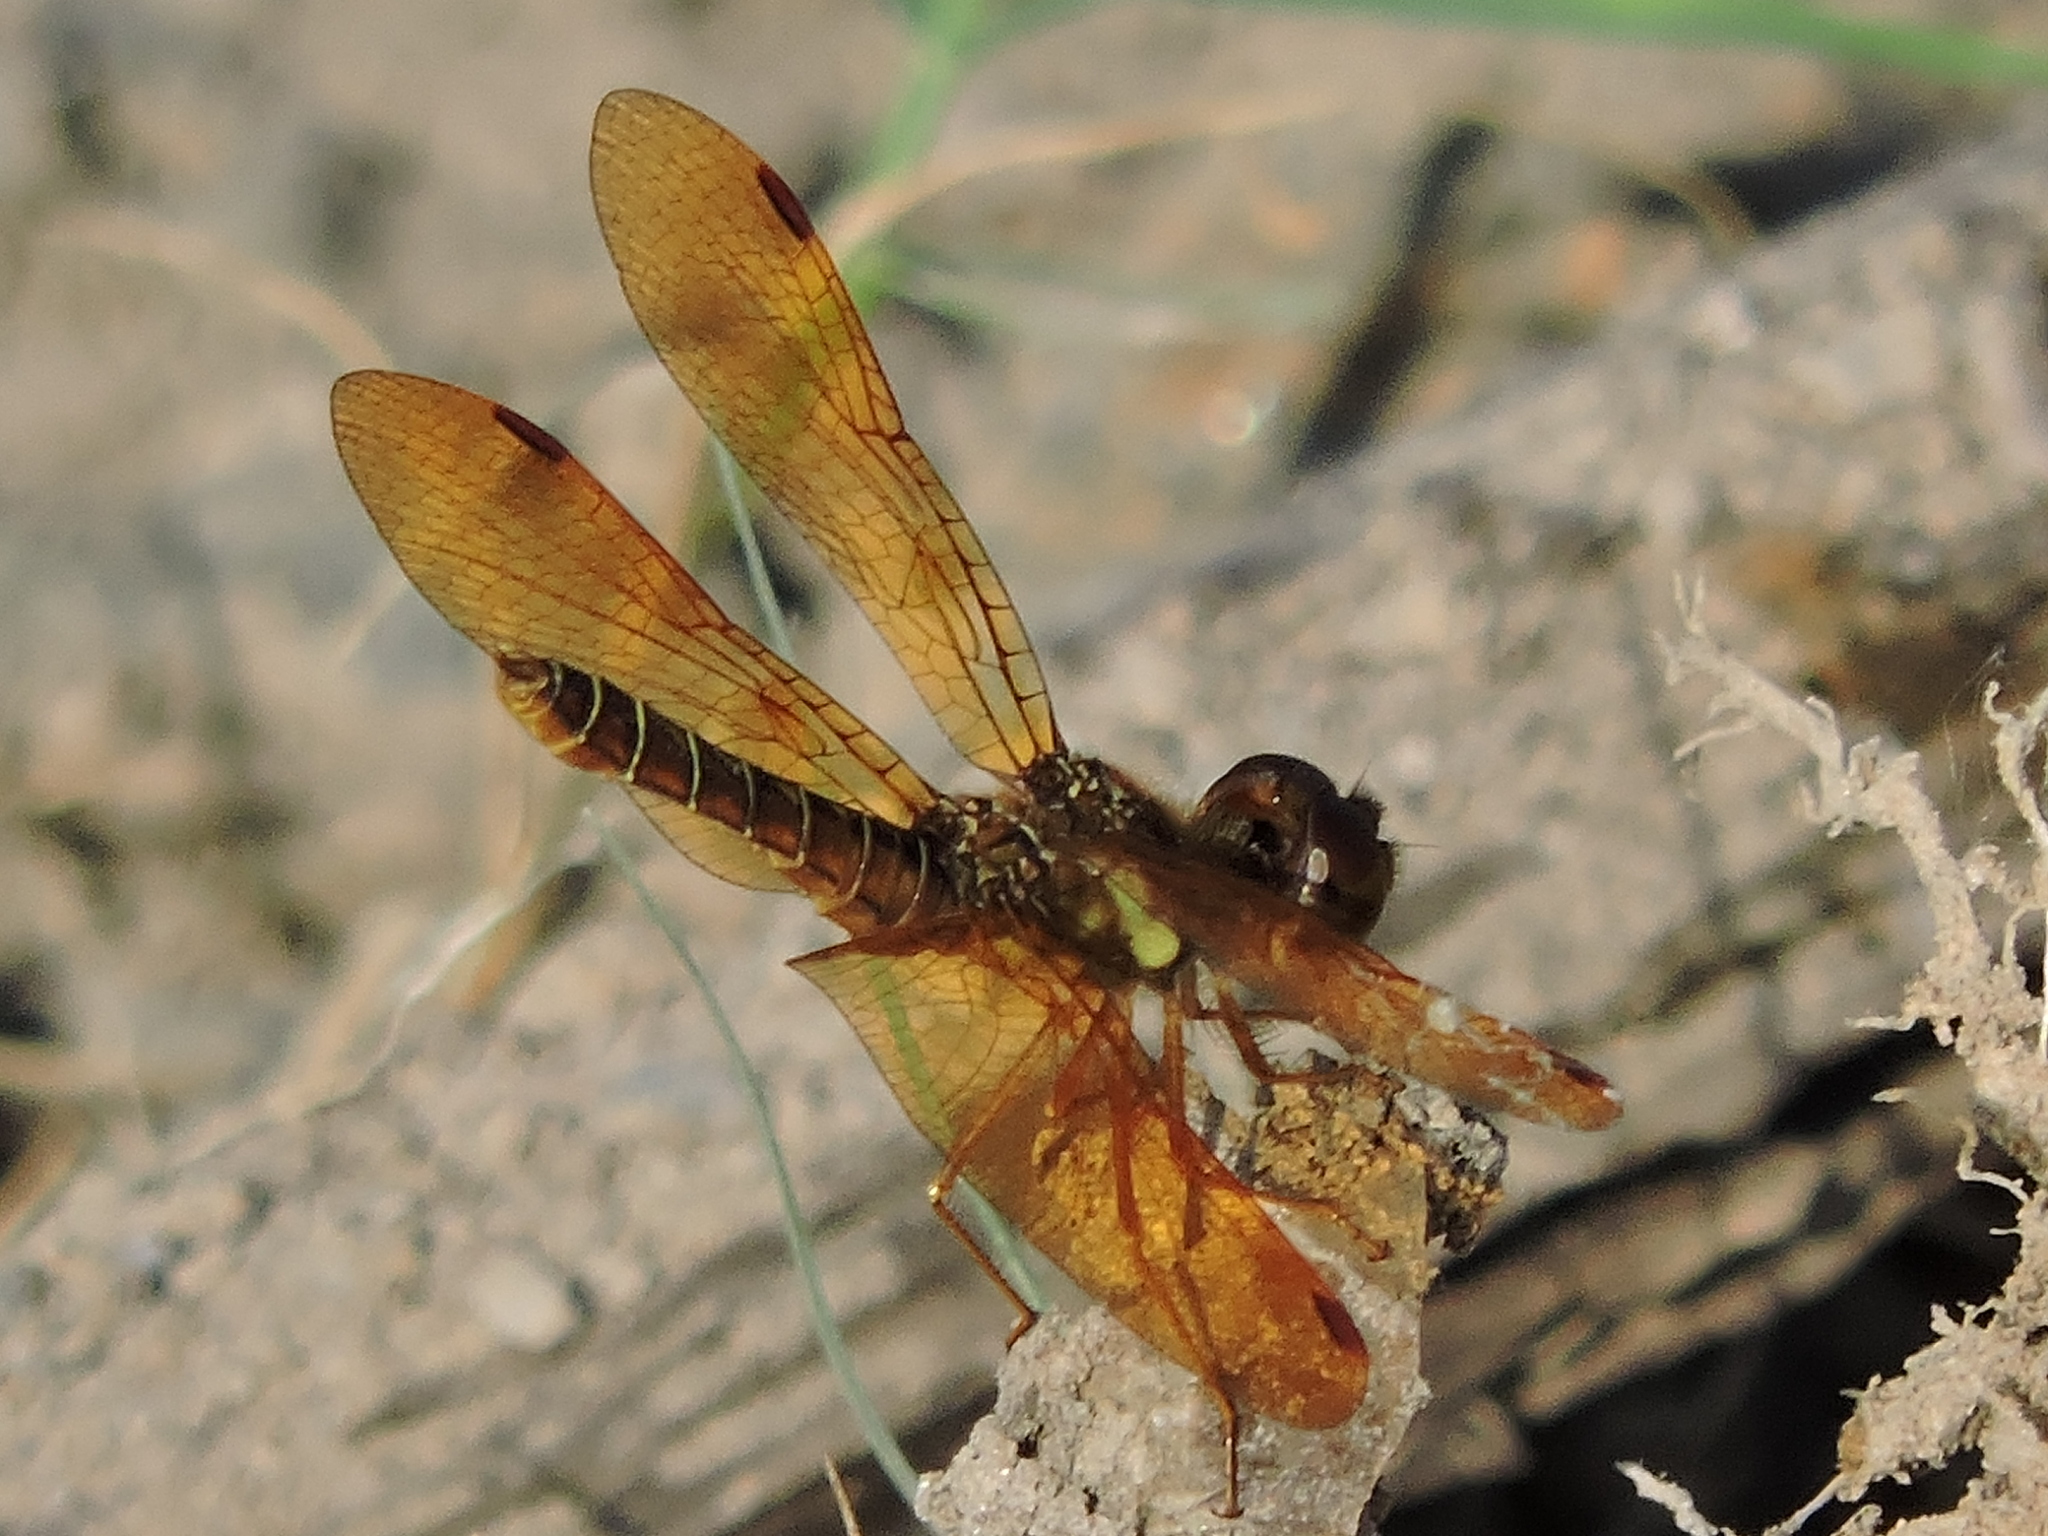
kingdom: Animalia
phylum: Arthropoda
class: Insecta
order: Odonata
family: Libellulidae
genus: Perithemis
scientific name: Perithemis tenera
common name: Eastern amberwing
